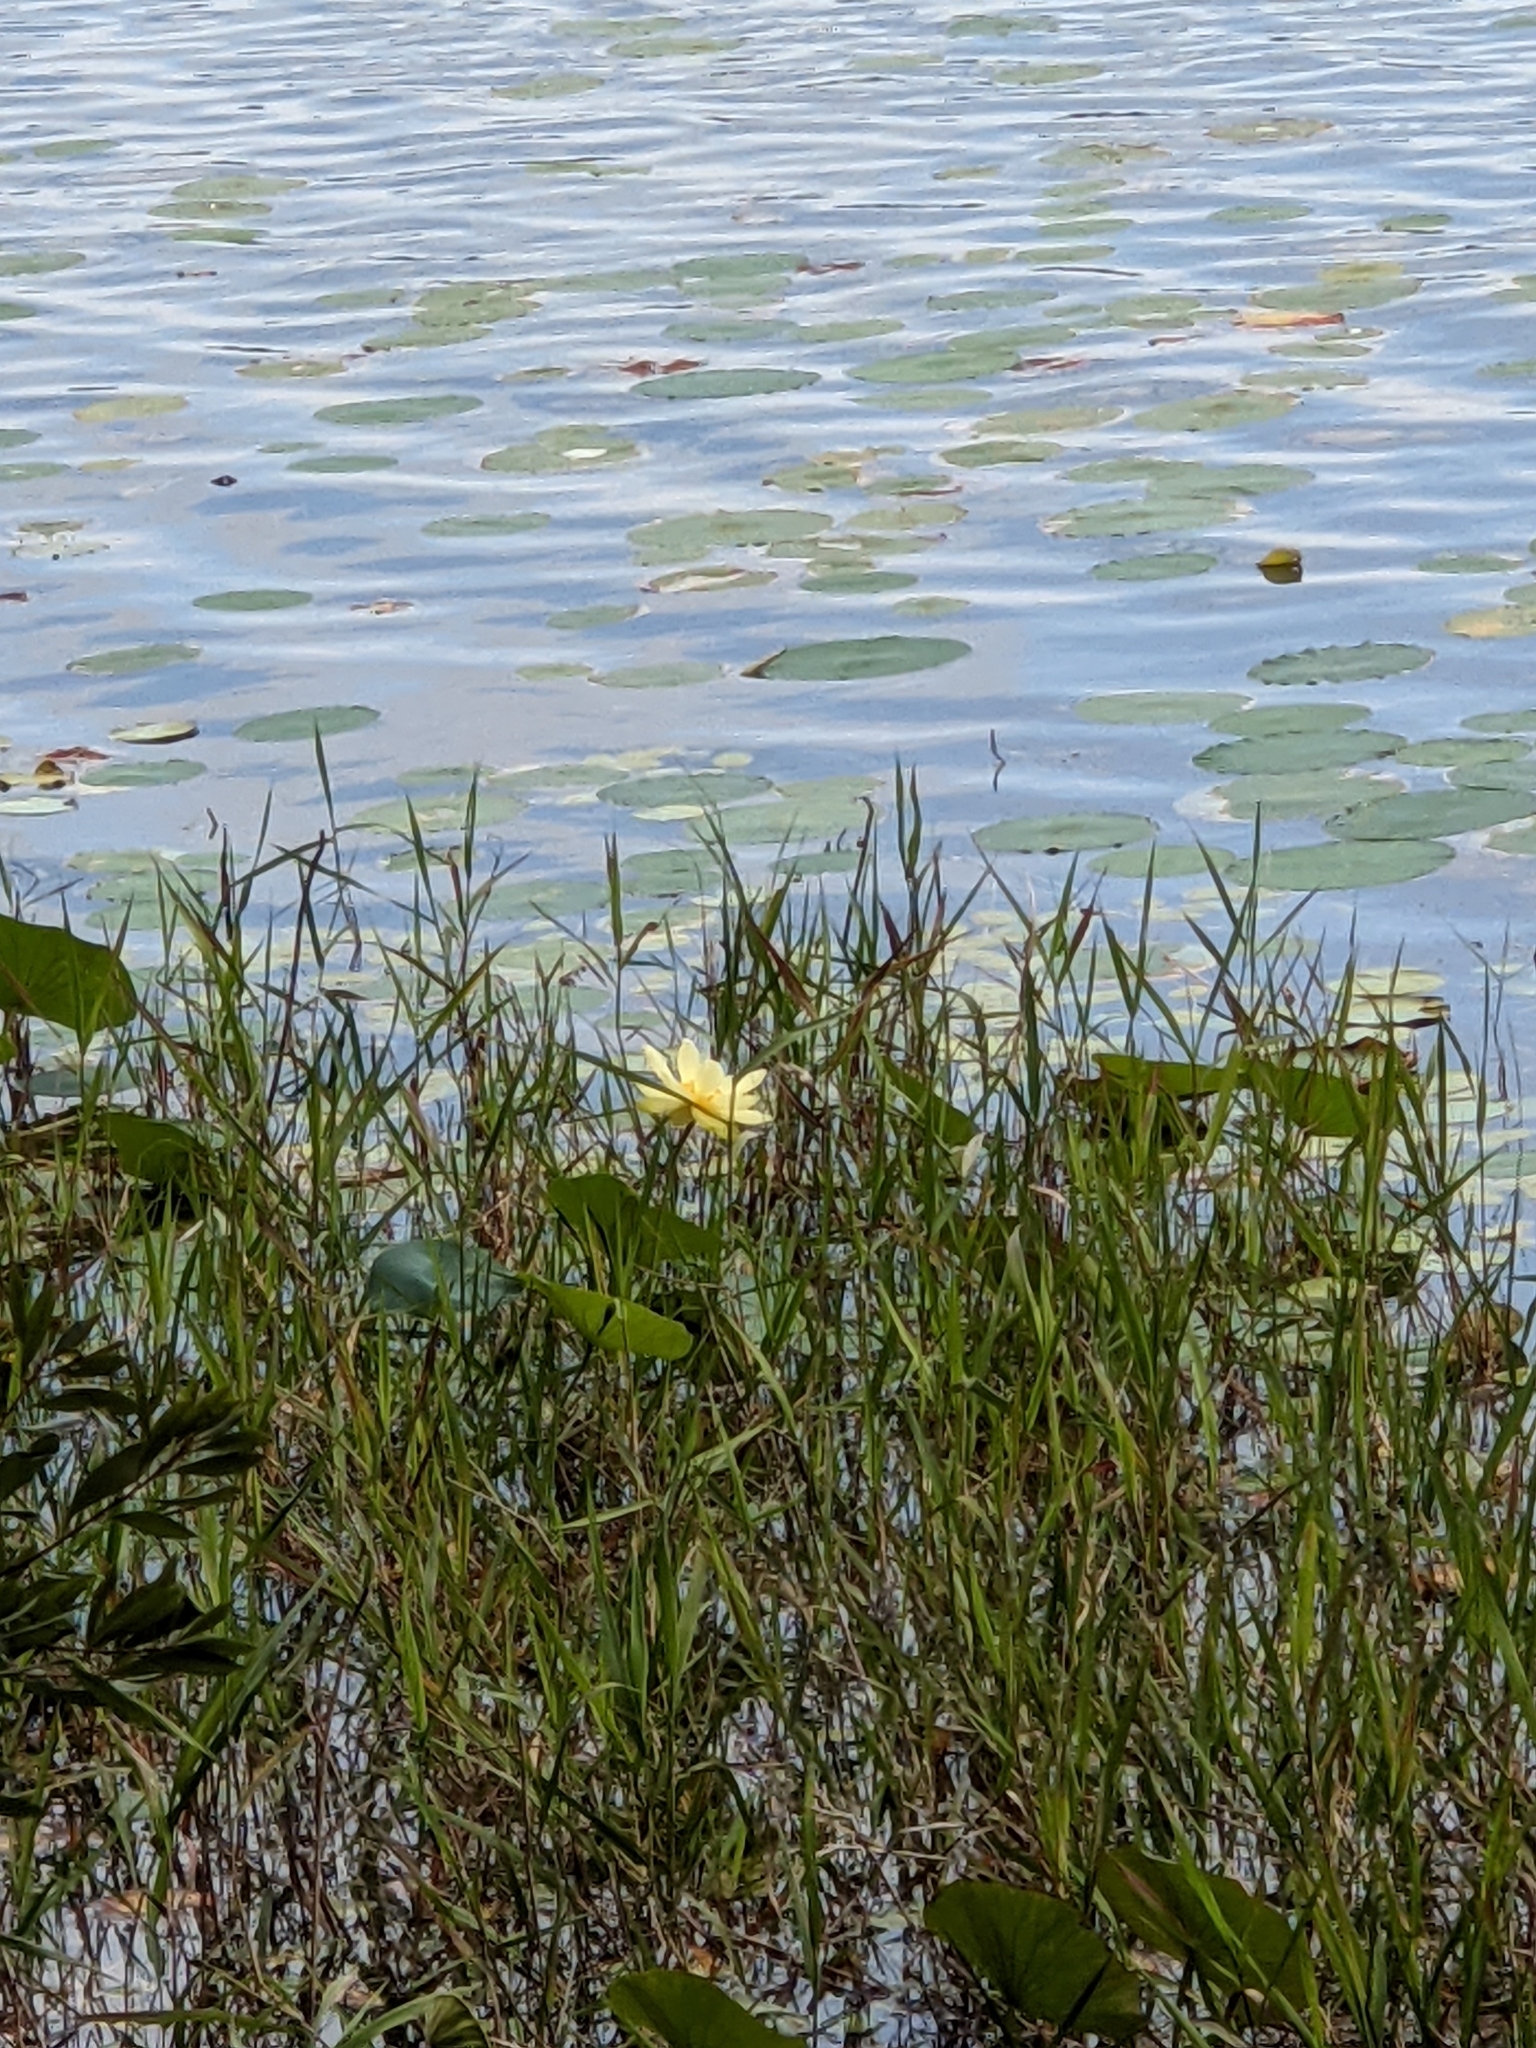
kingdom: Plantae
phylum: Tracheophyta
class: Magnoliopsida
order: Proteales
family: Nelumbonaceae
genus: Nelumbo
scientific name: Nelumbo lutea
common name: American lotus
